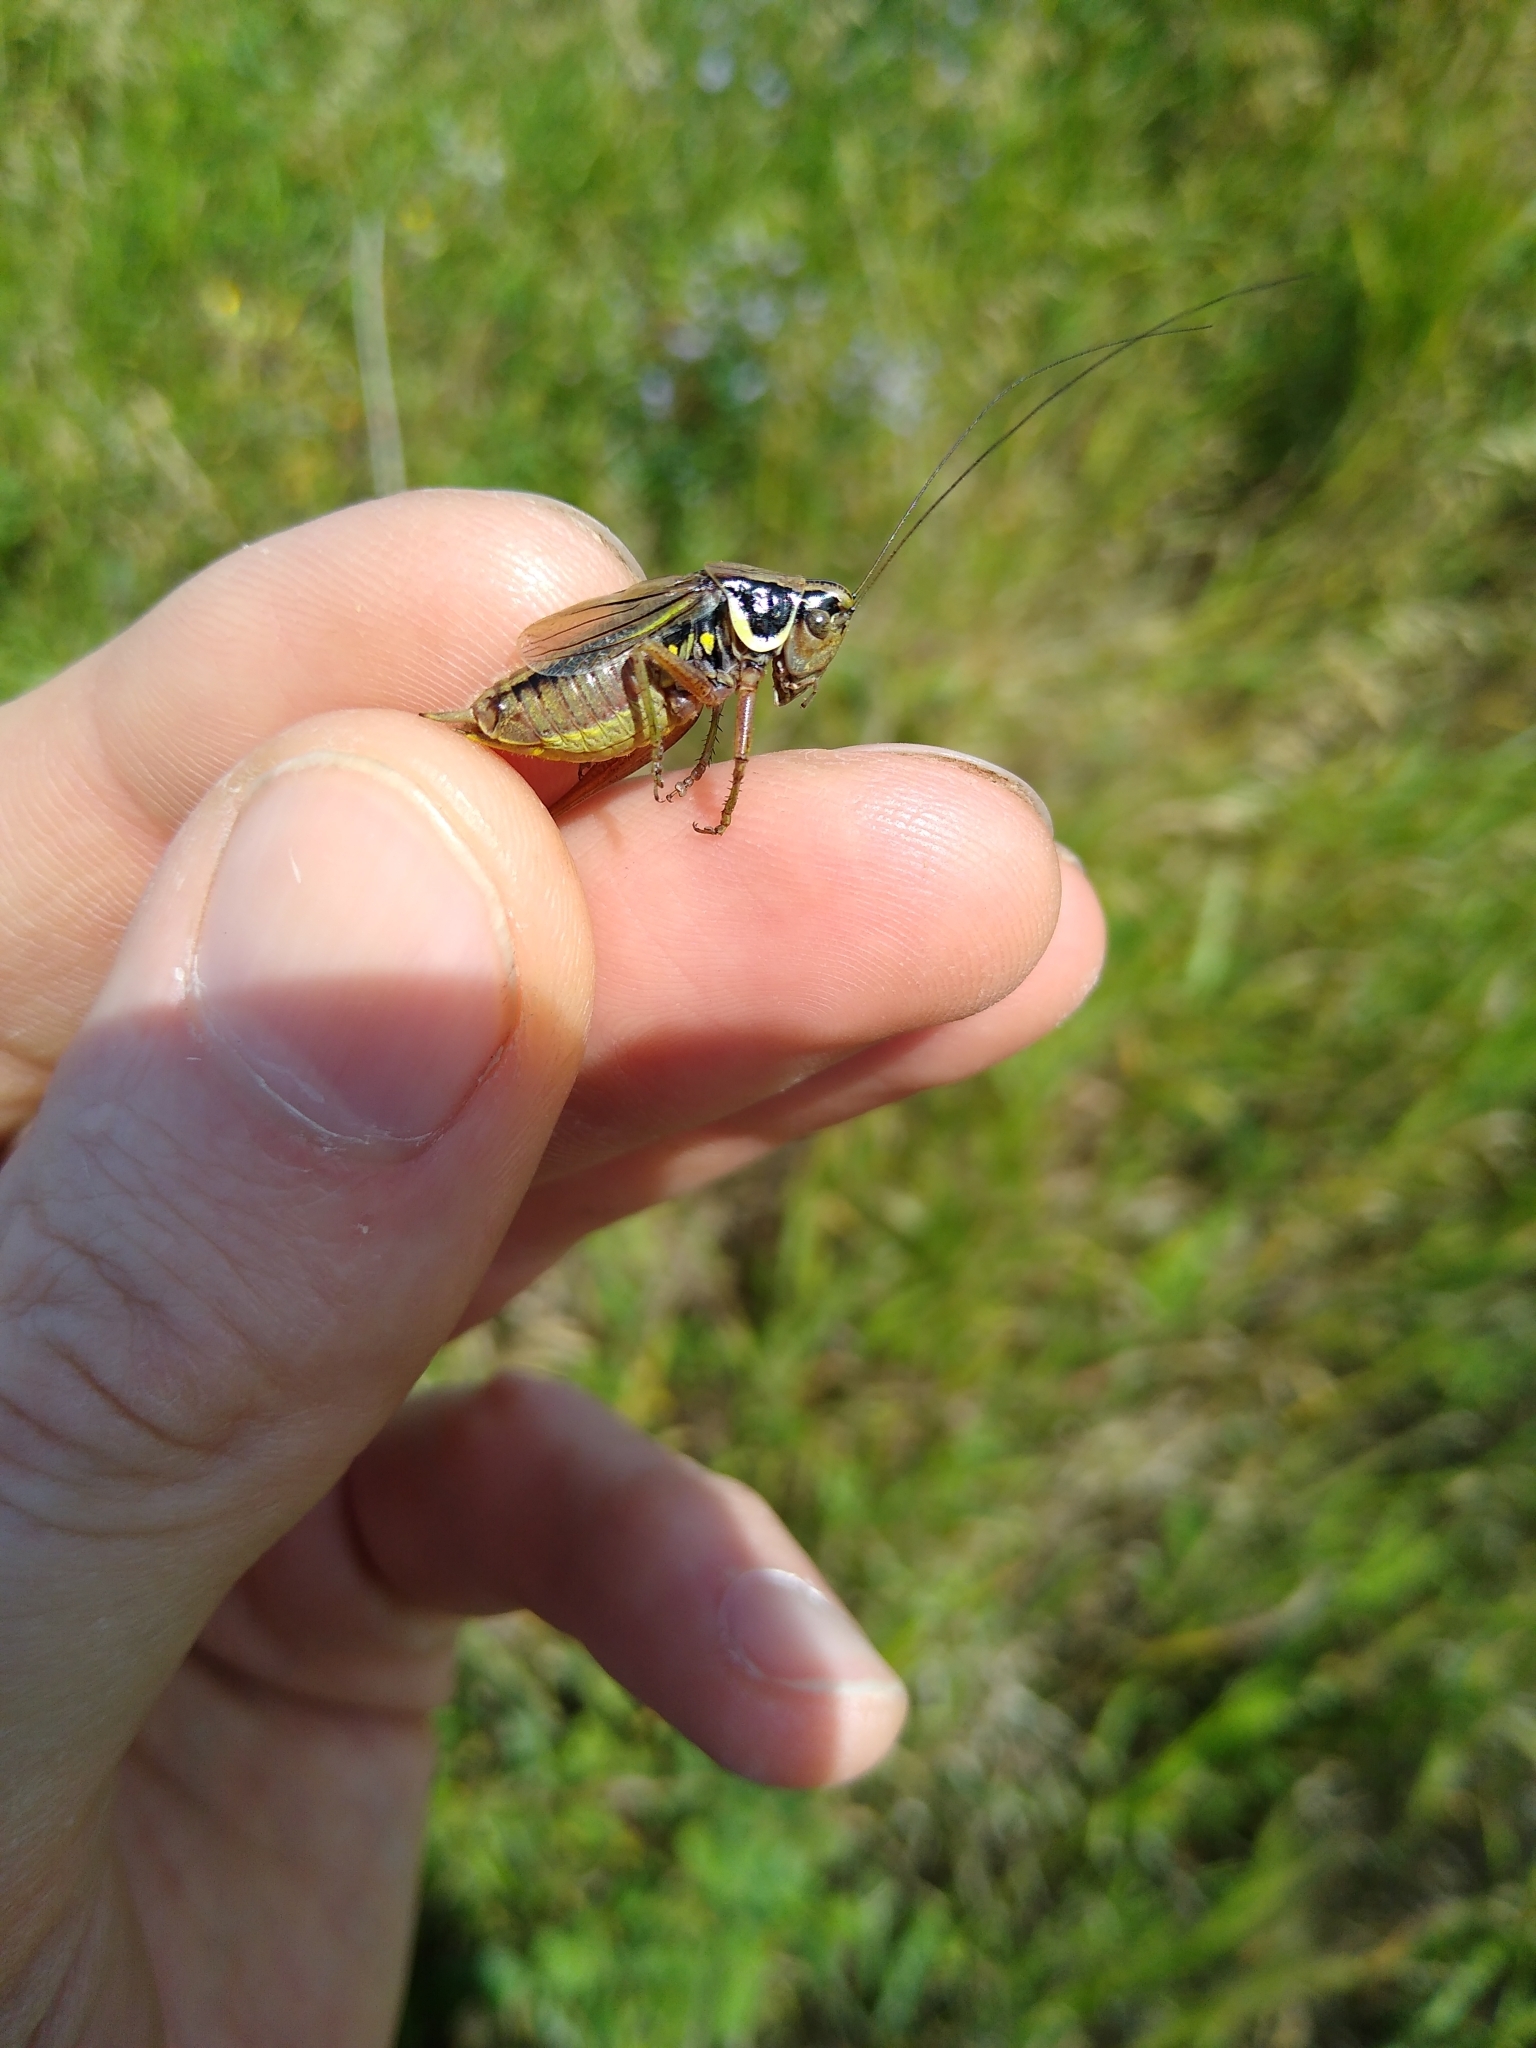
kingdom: Animalia
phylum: Arthropoda
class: Insecta
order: Orthoptera
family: Tettigoniidae
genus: Roeseliana
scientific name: Roeseliana roeselii
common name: Roesel's bush cricket
